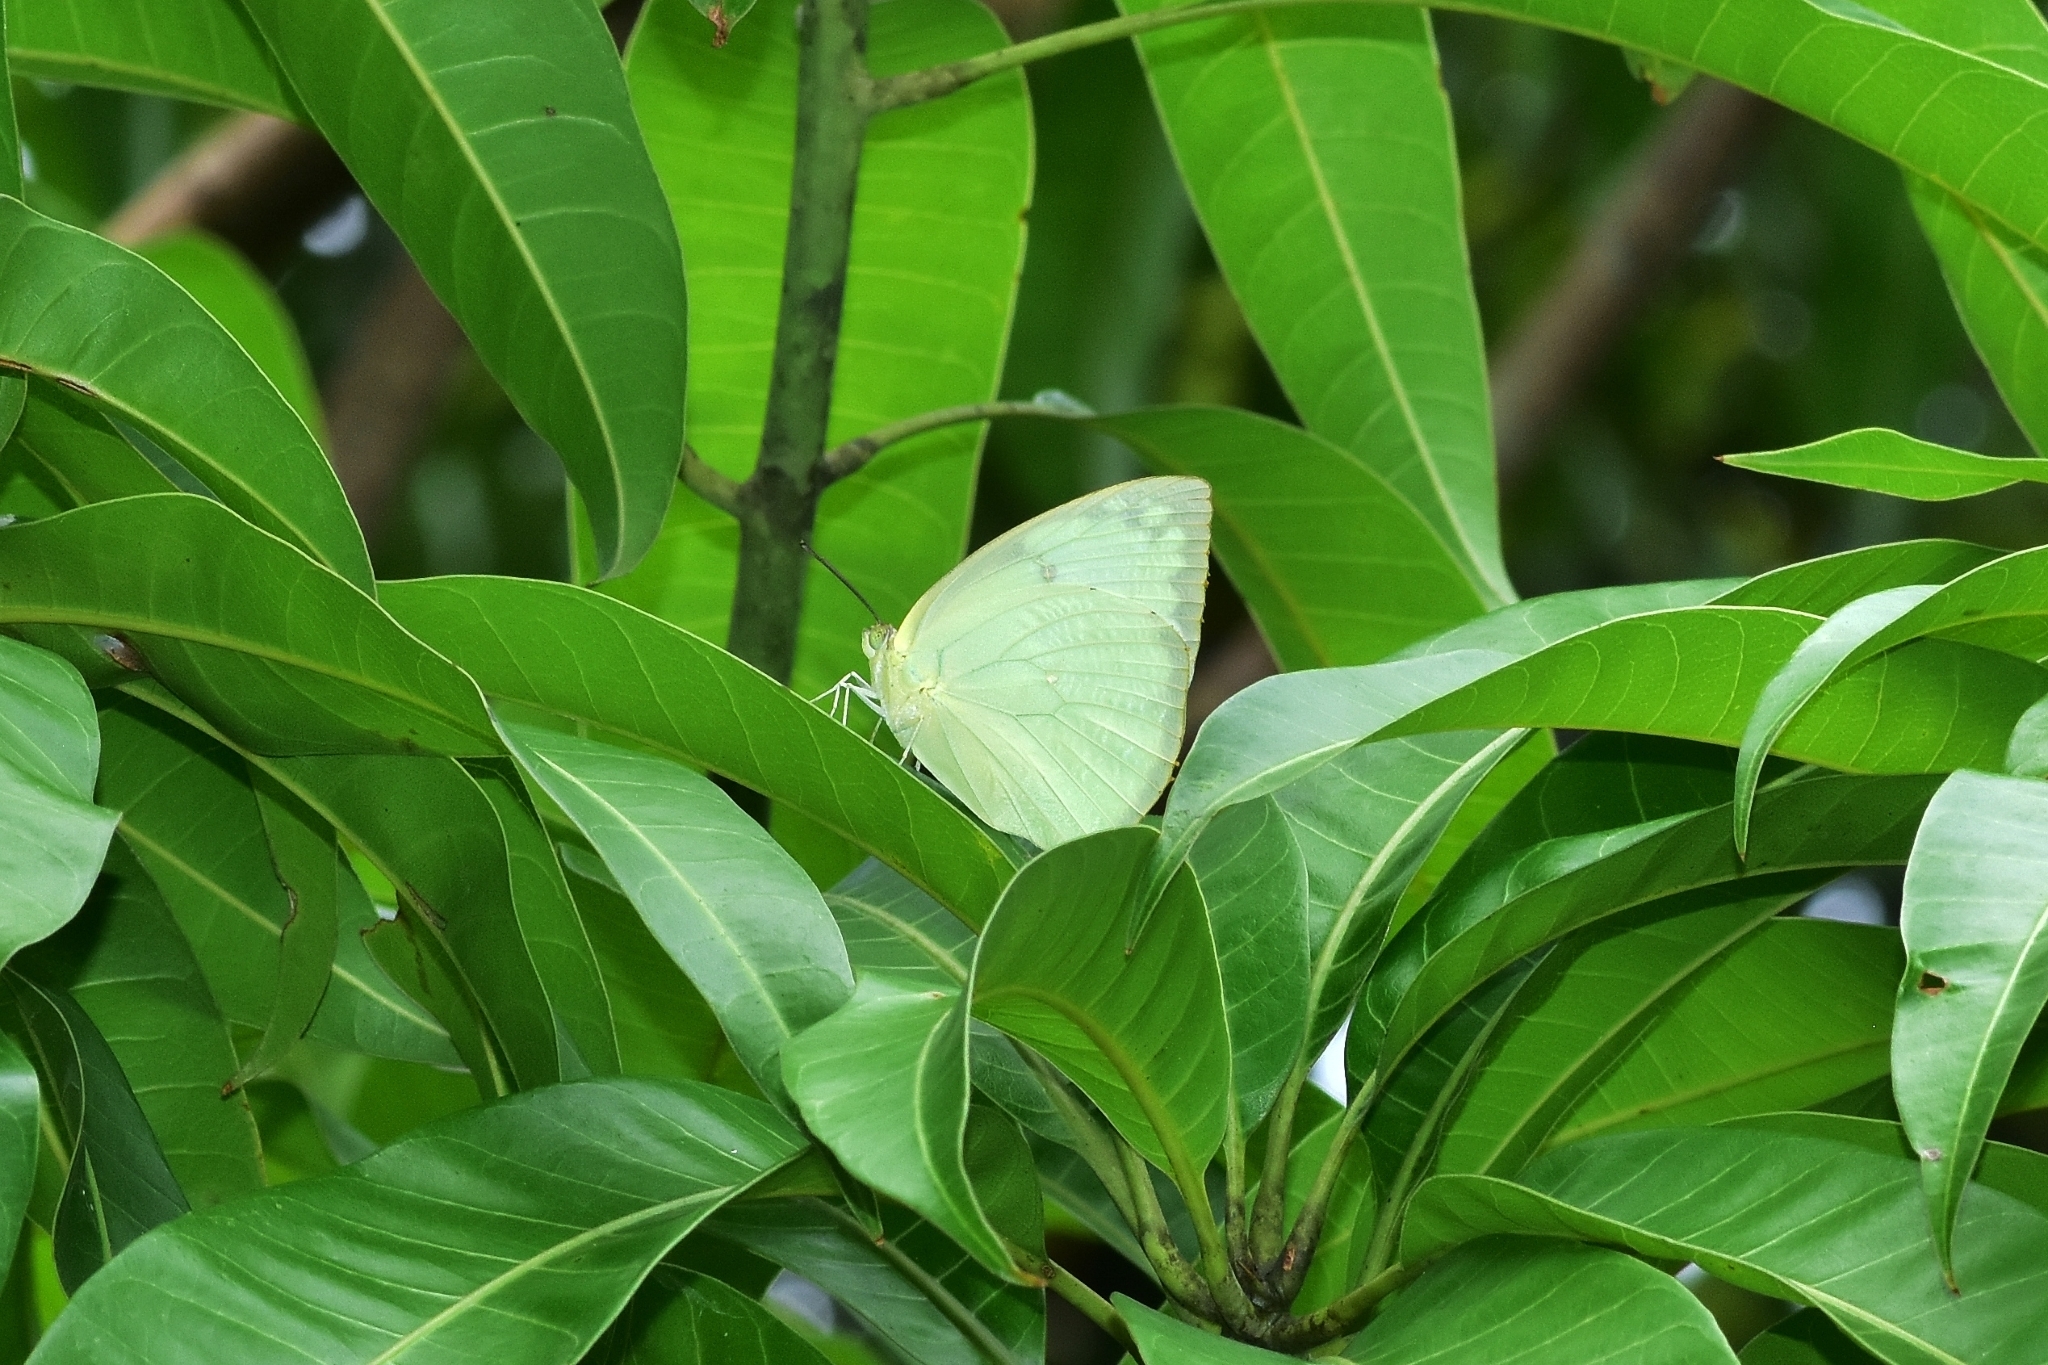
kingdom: Animalia
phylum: Arthropoda
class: Insecta
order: Lepidoptera
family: Pieridae
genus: Catopsilia
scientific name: Catopsilia pomona
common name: Common emigrant
